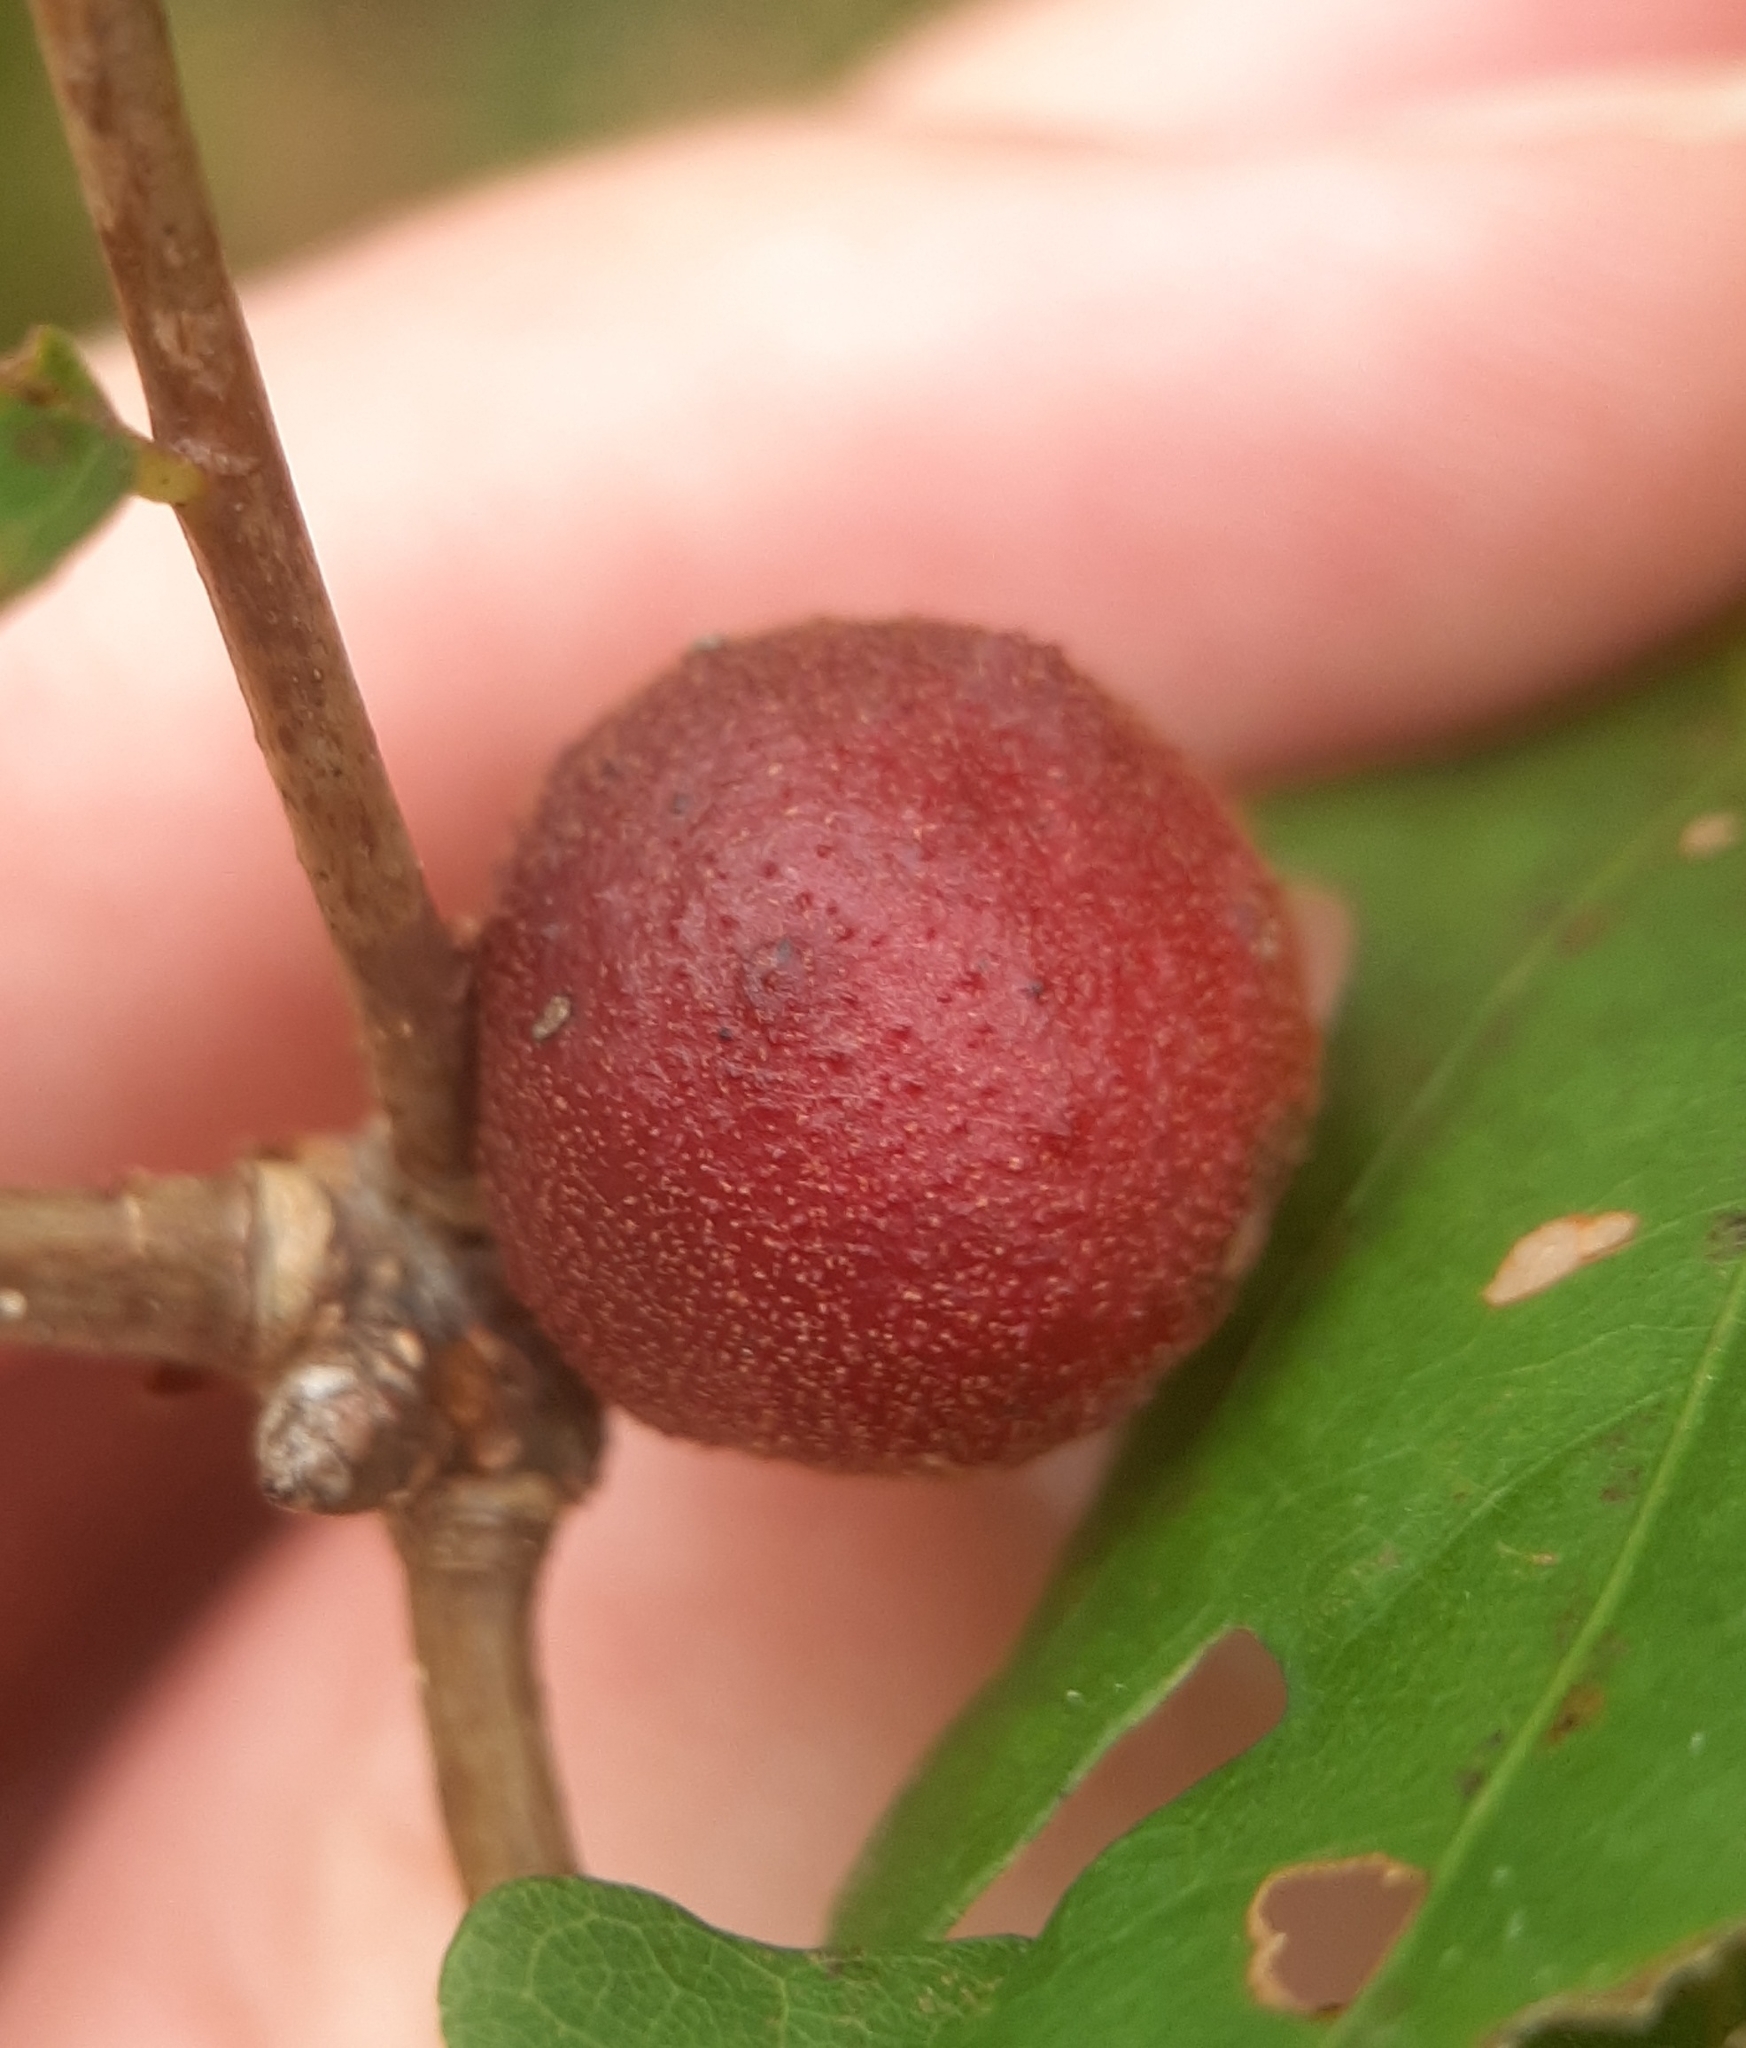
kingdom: Animalia
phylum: Arthropoda
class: Insecta
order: Hymenoptera
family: Cynipidae
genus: Disholcaspis
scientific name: Disholcaspis quercusglobulus
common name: Round bullet gall wasp
